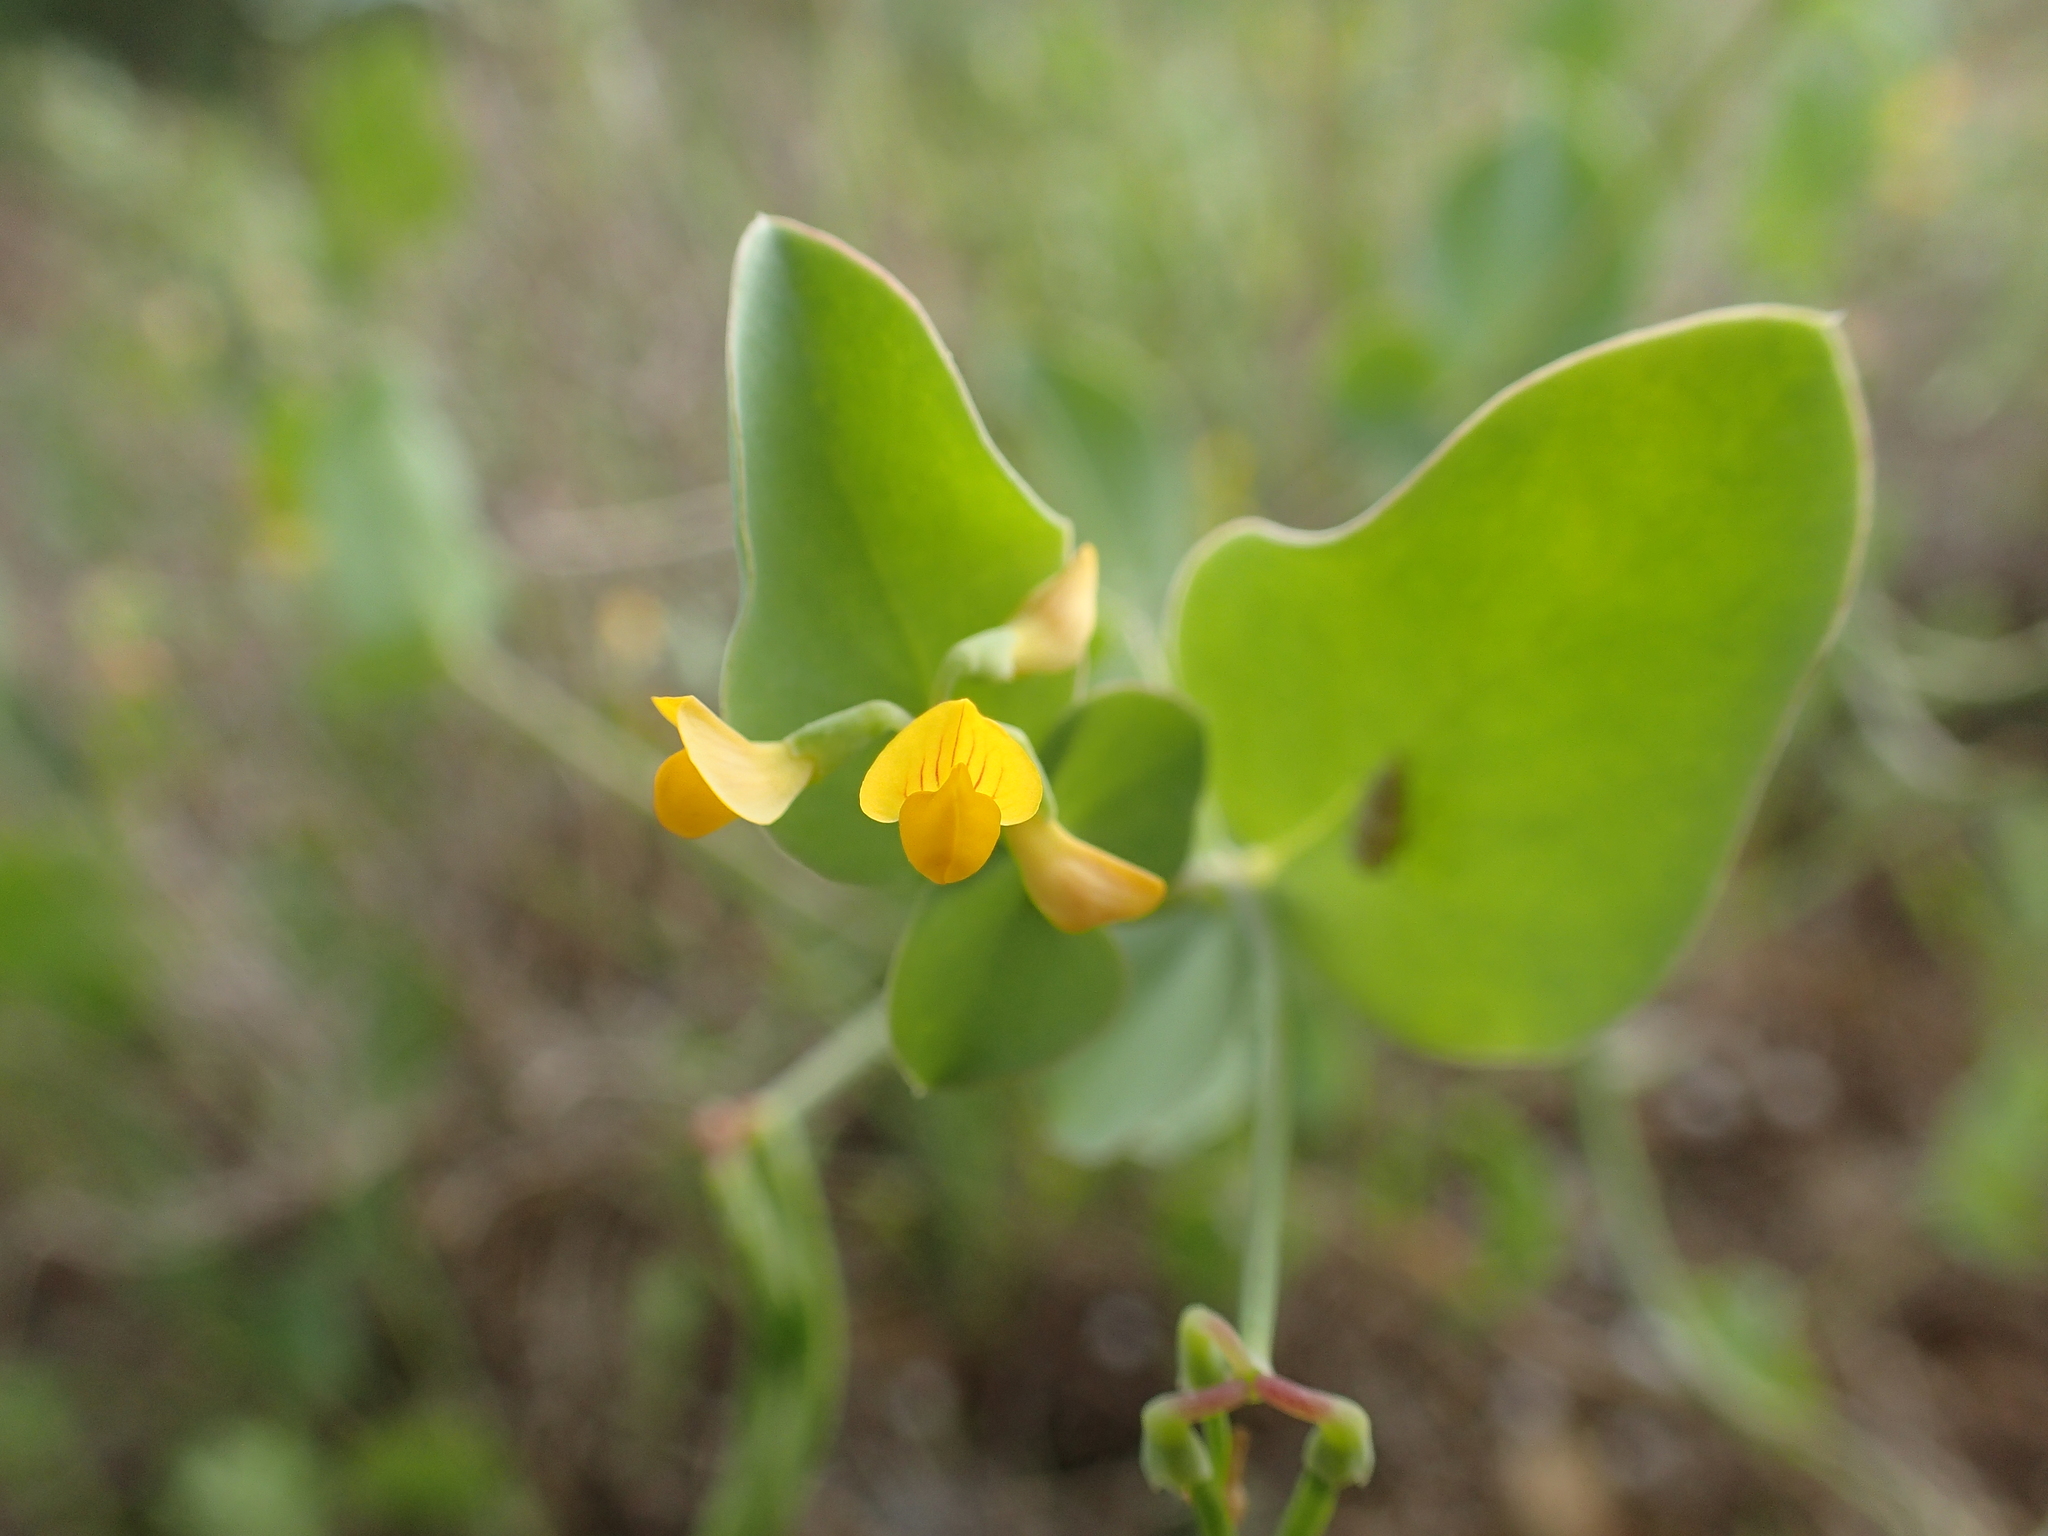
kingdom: Plantae
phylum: Tracheophyta
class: Magnoliopsida
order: Fabales
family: Fabaceae
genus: Coronilla
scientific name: Coronilla scorpioides
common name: Annual scorpion-vetch
